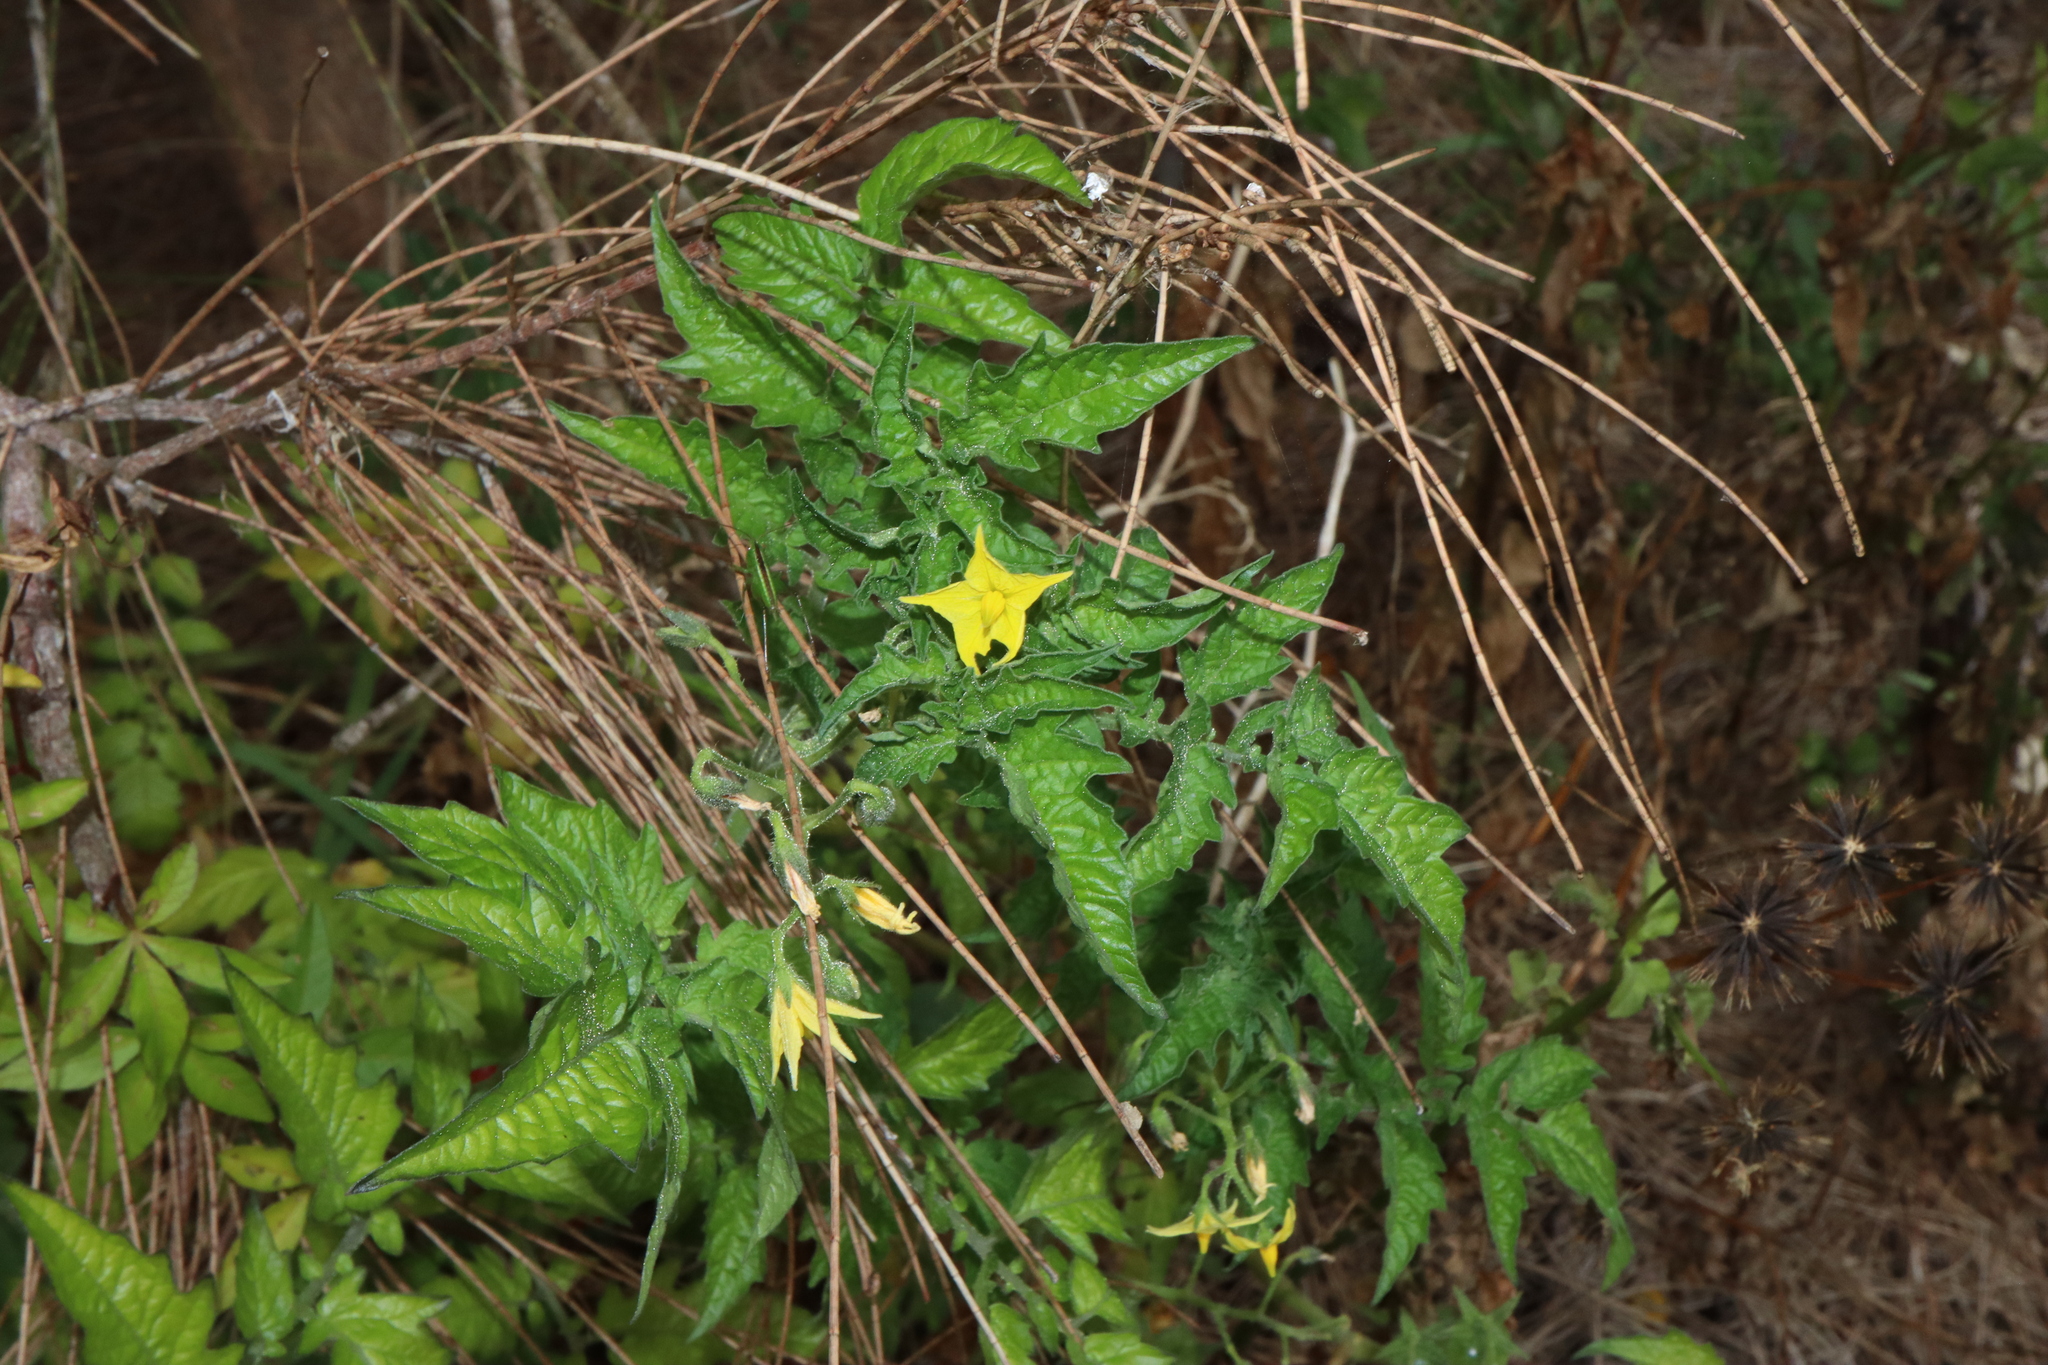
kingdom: Plantae
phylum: Tracheophyta
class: Magnoliopsida
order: Solanales
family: Solanaceae
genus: Solanum
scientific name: Solanum lycopersicum
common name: Garden tomato
